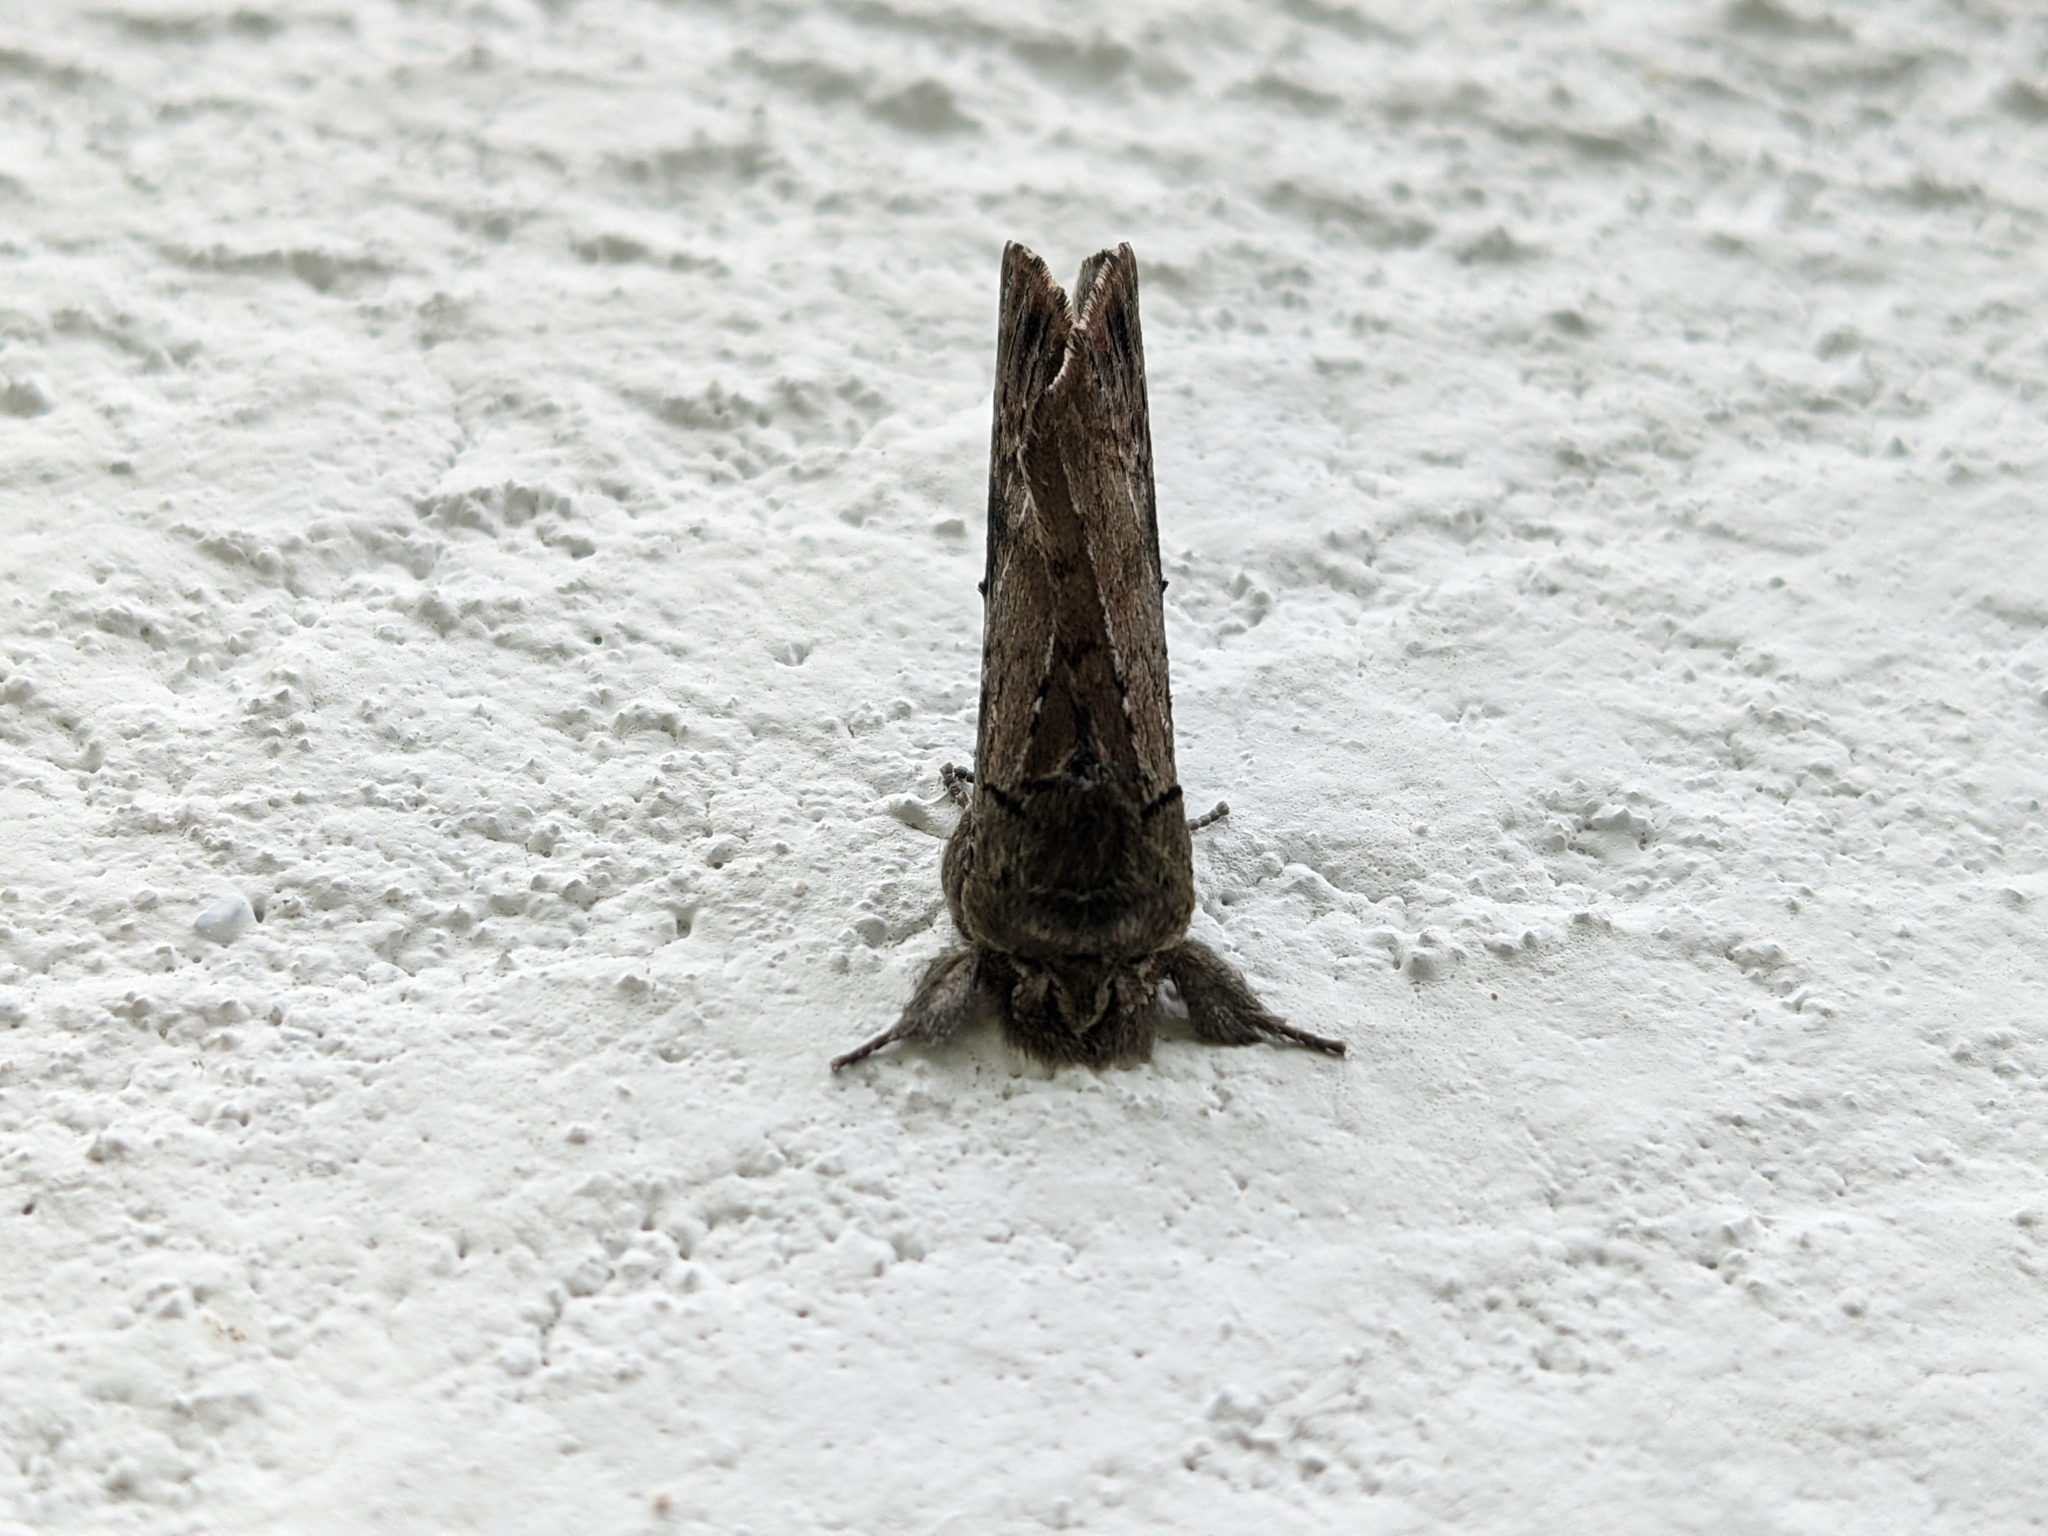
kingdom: Animalia
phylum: Arthropoda
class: Insecta
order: Lepidoptera
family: Notodontidae
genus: Schizura
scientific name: Schizura
